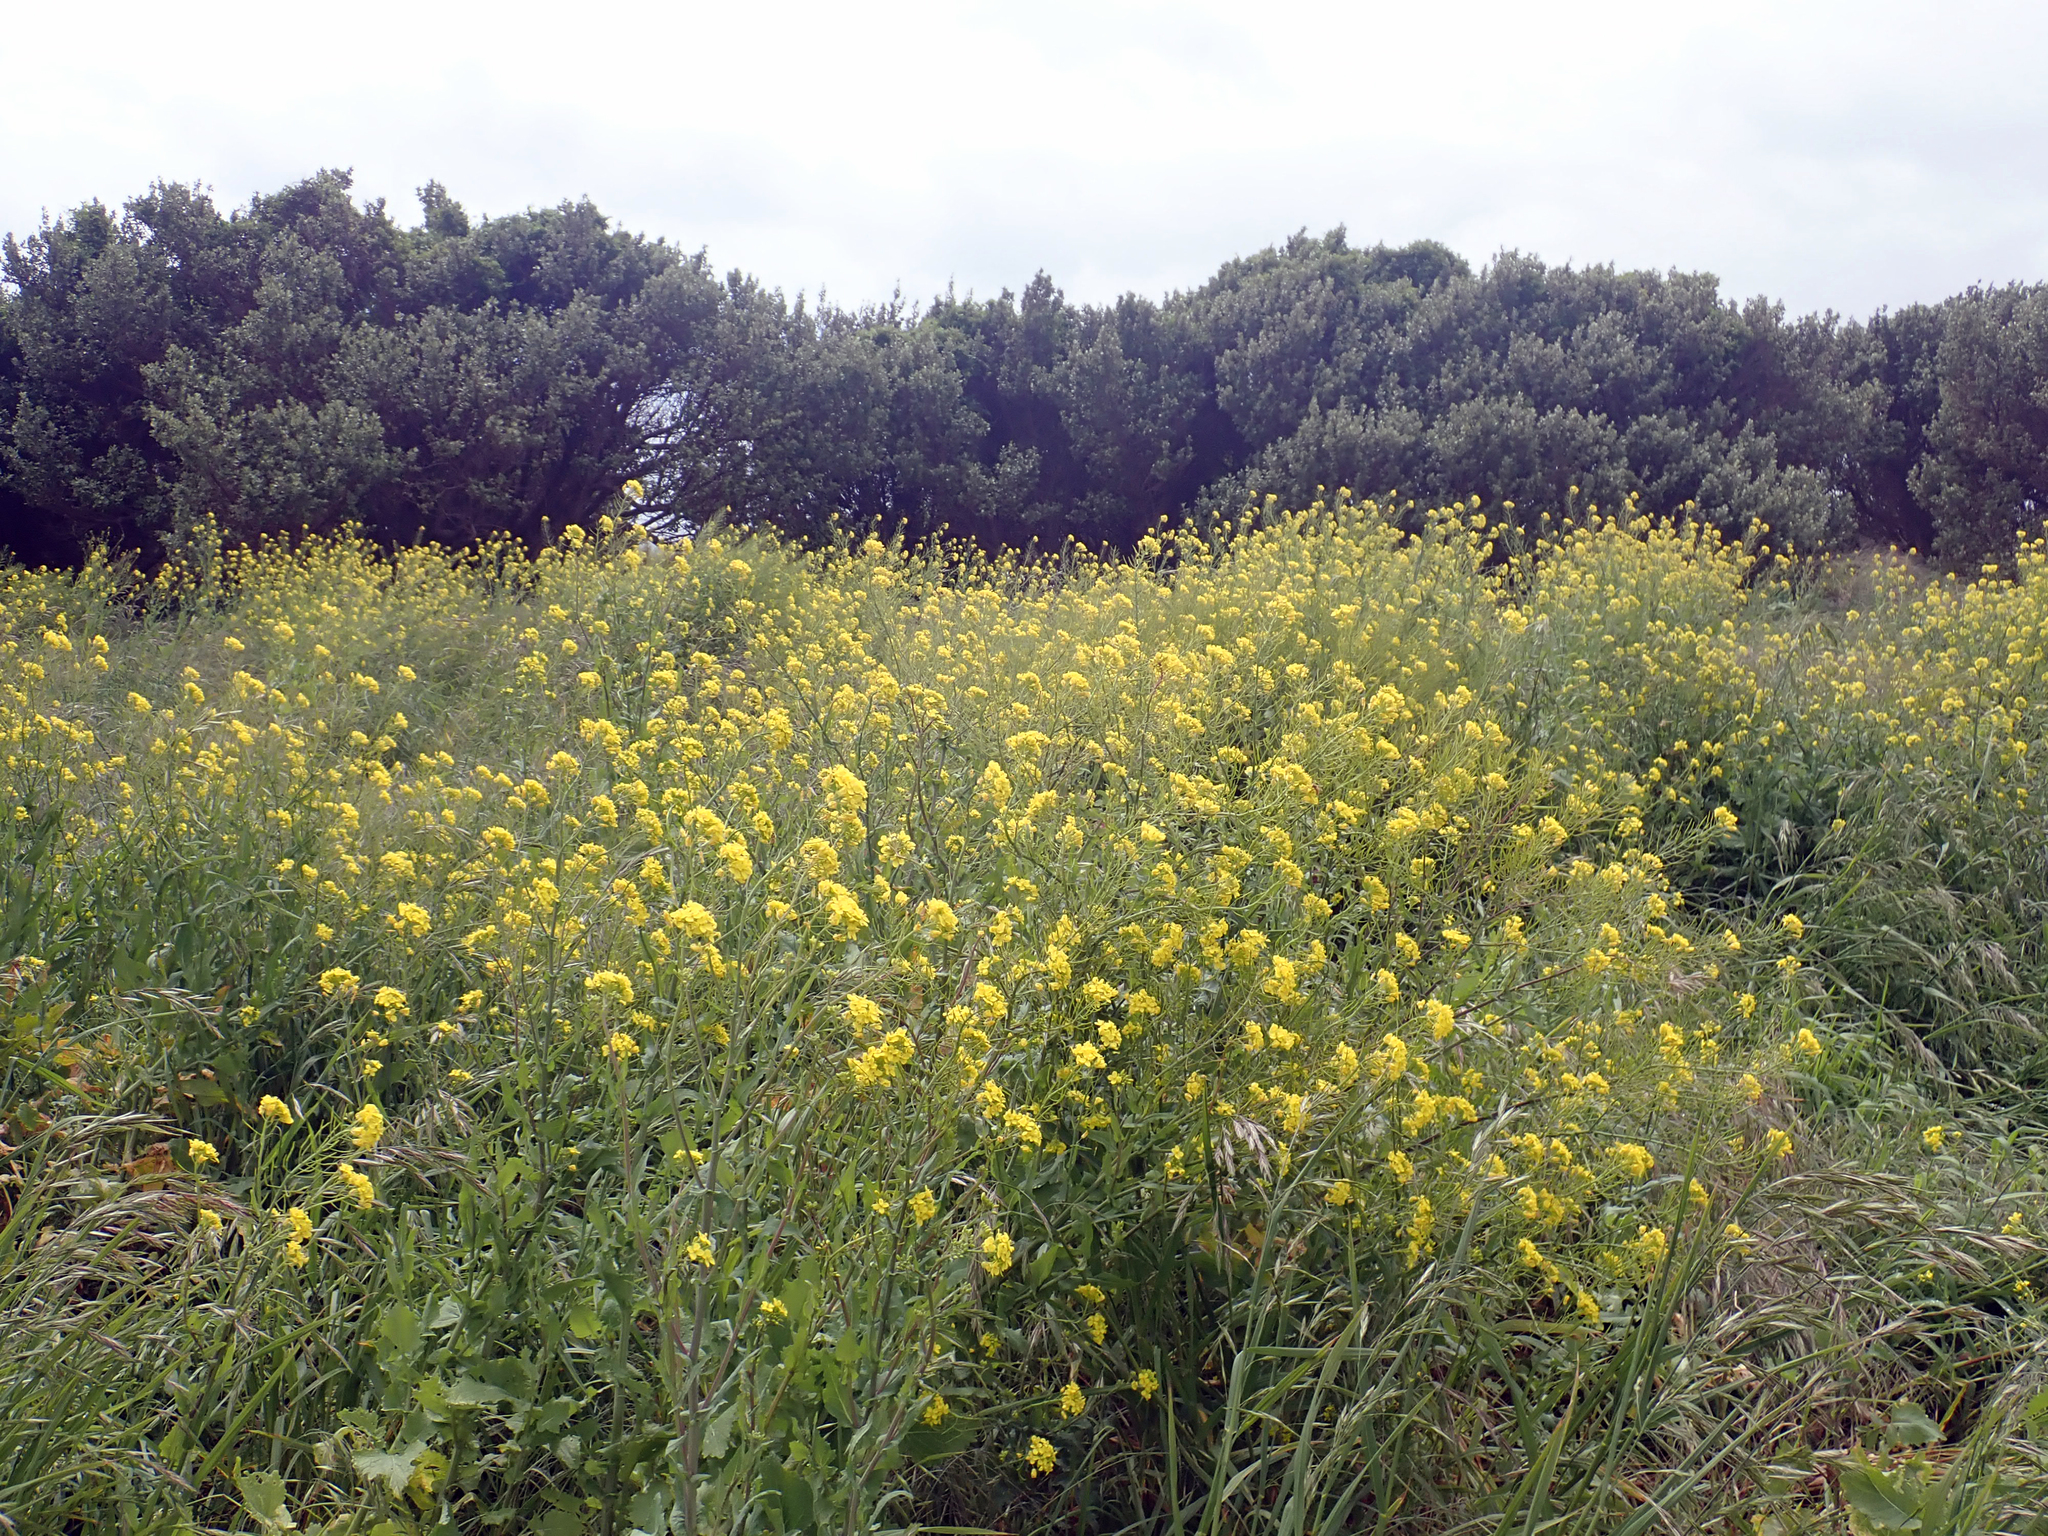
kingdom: Plantae
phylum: Tracheophyta
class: Magnoliopsida
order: Brassicales
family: Brassicaceae
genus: Brassica
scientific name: Brassica napus
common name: Rape
